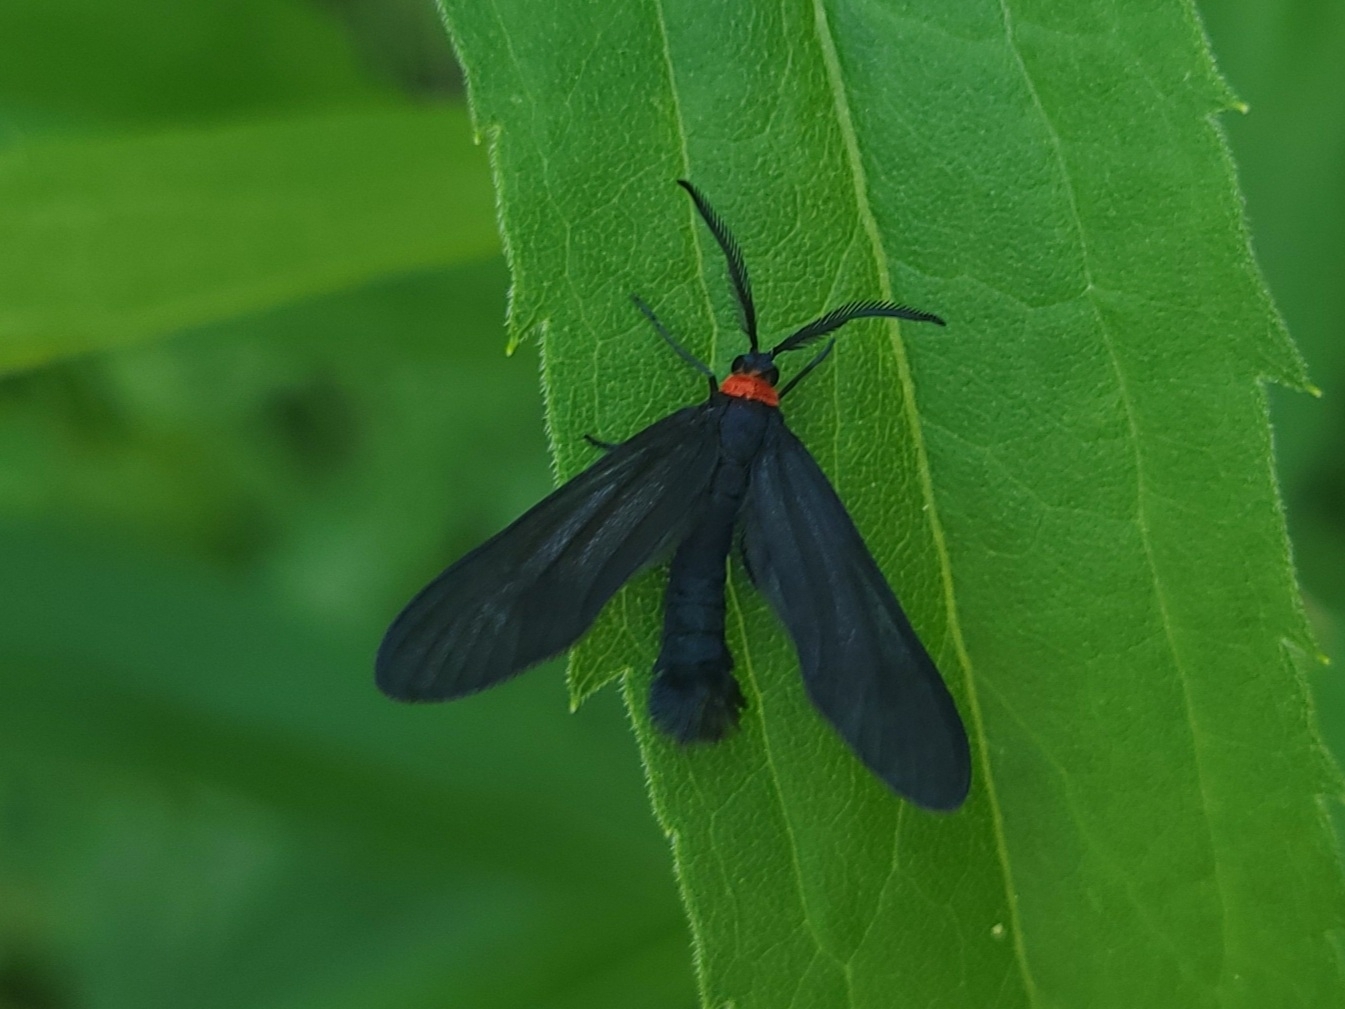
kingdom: Animalia
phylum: Arthropoda
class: Insecta
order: Lepidoptera
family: Zygaenidae
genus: Harrisina
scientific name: Harrisina americana
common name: Grapeleaf skeletonizer moth
